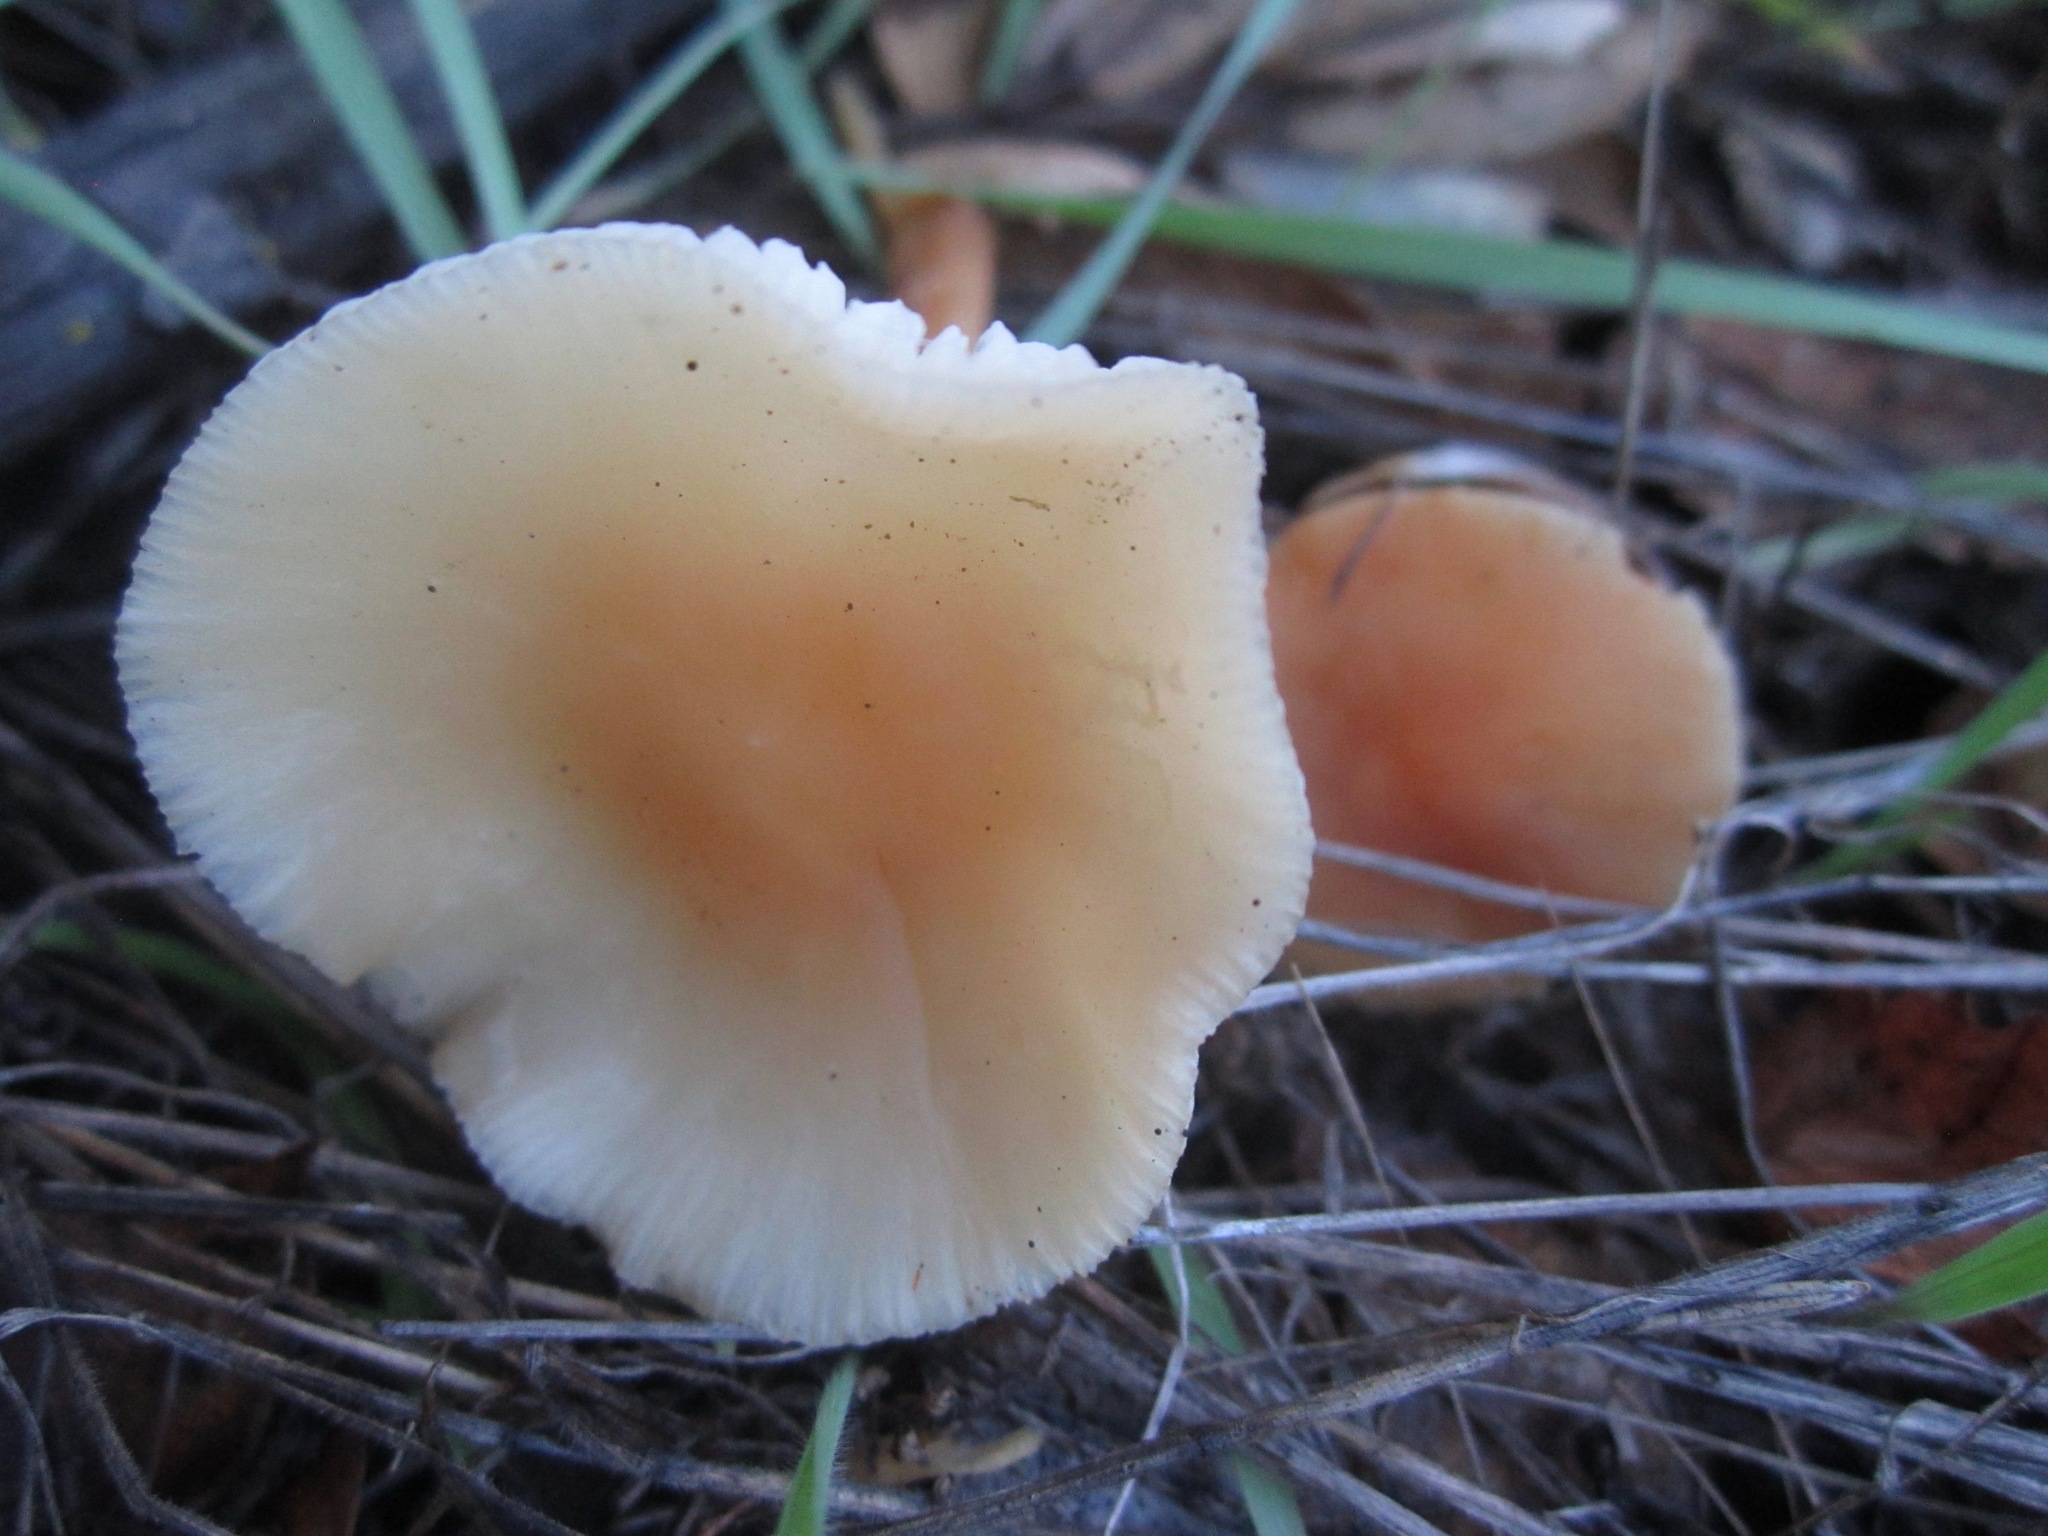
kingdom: Fungi
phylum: Basidiomycota
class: Agaricomycetes
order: Agaricales
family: Omphalotaceae
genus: Gymnopus
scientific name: Gymnopus dryophilus
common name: Penny top
